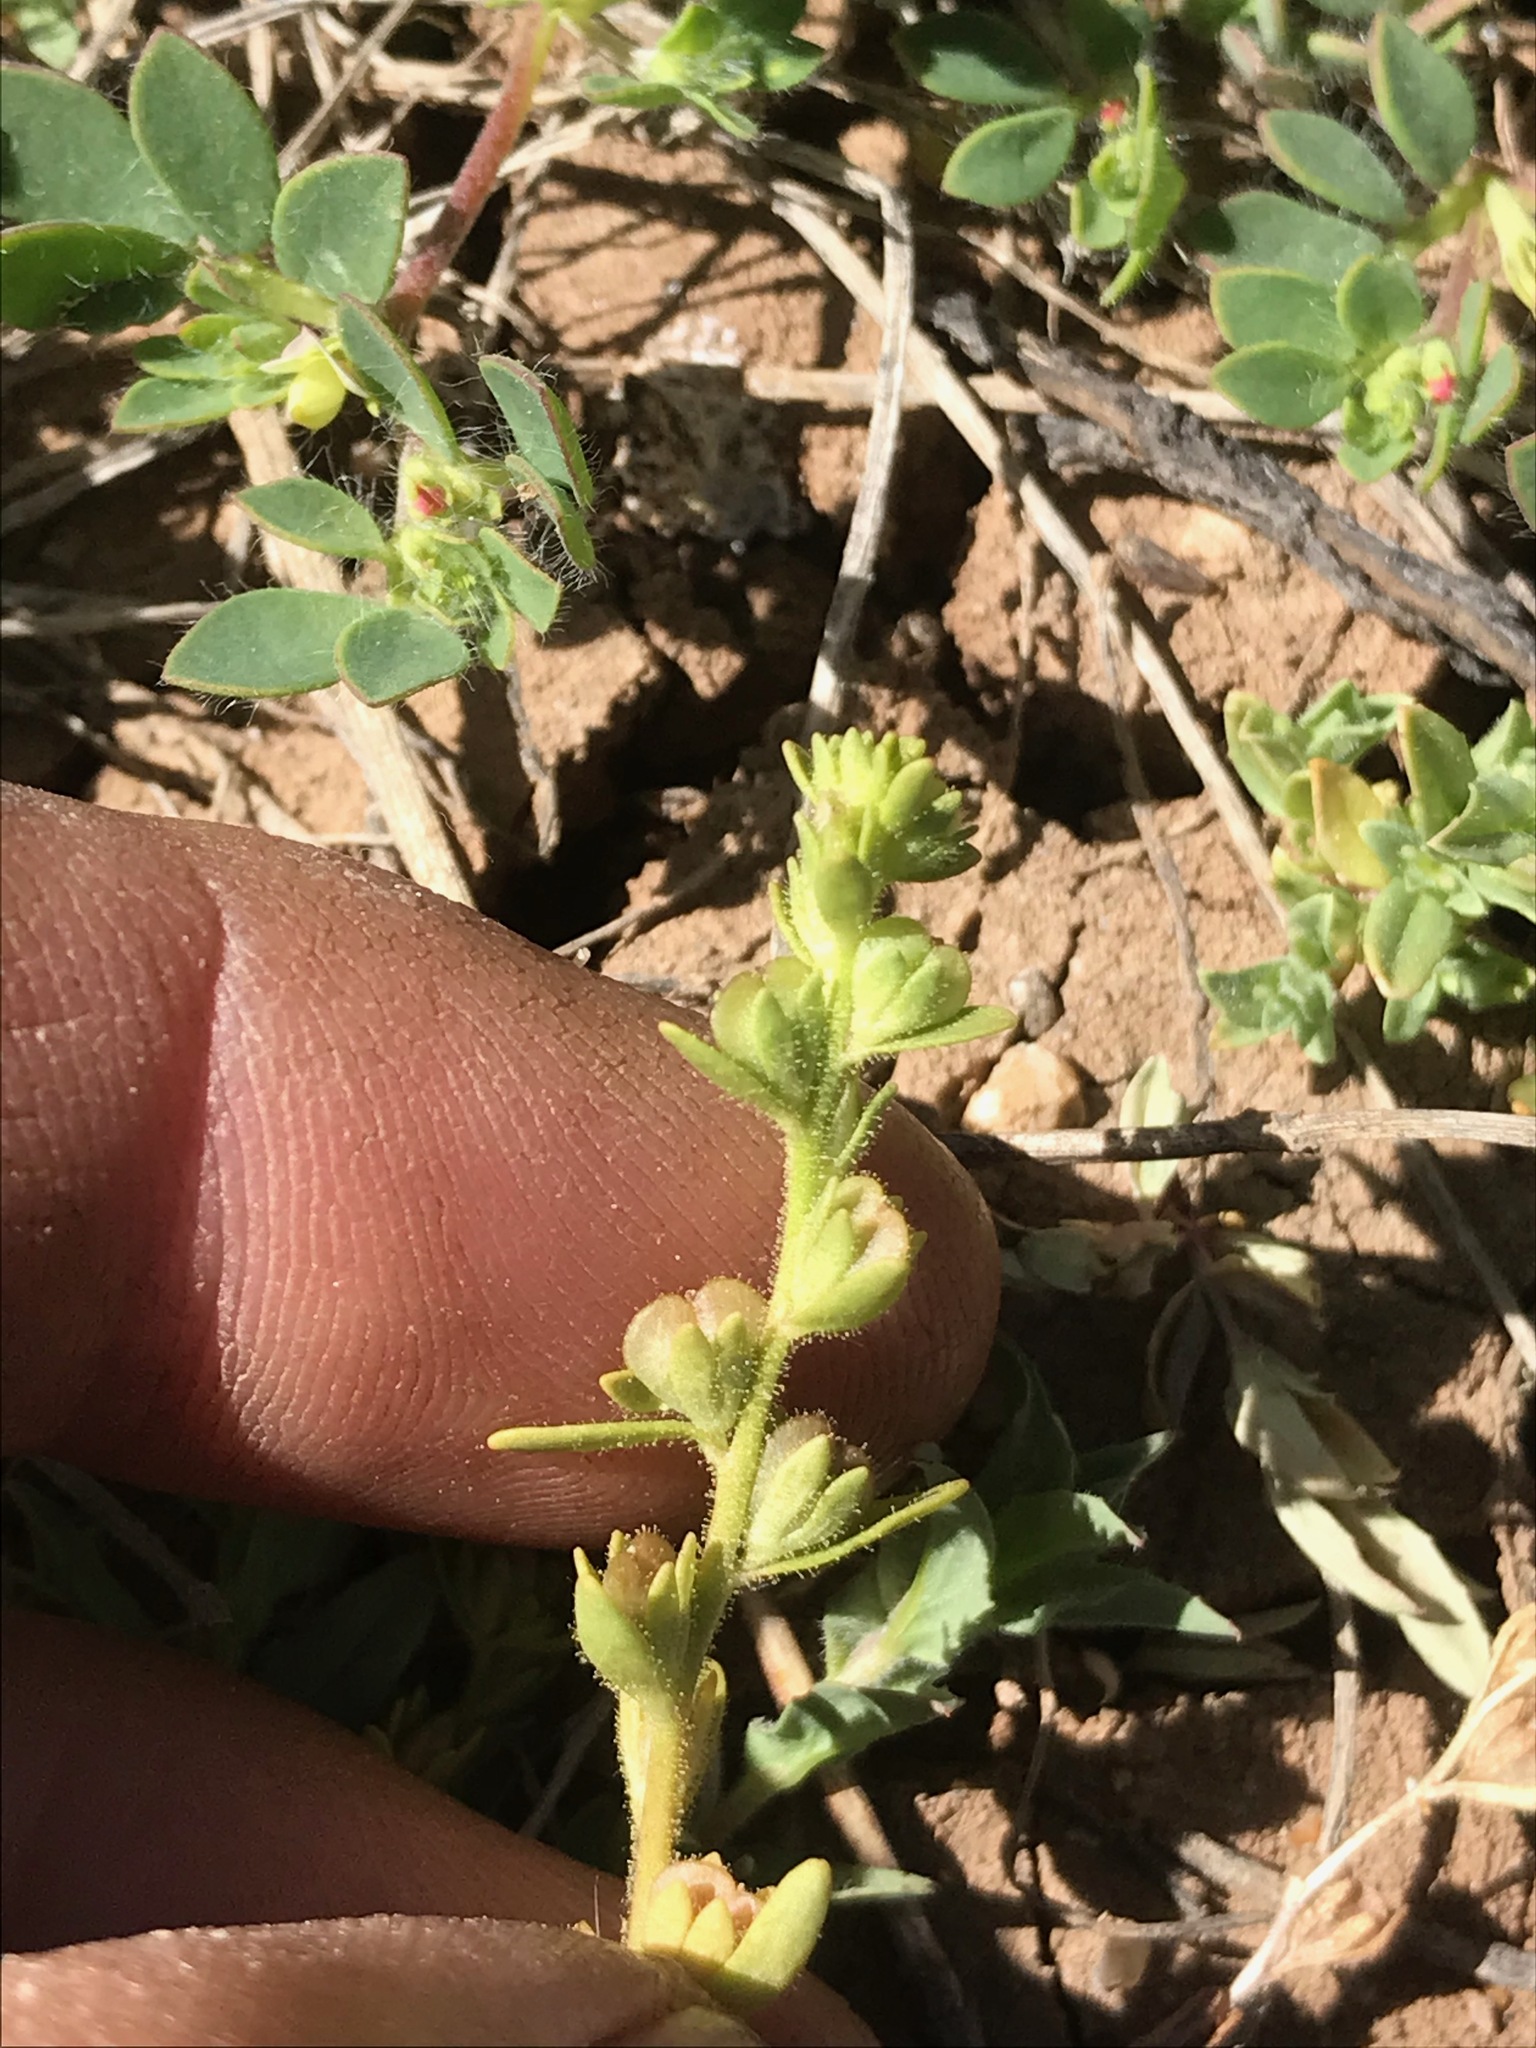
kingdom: Plantae
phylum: Tracheophyta
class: Magnoliopsida
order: Lamiales
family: Plantaginaceae
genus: Veronica
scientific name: Veronica peregrina
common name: Neckweed
